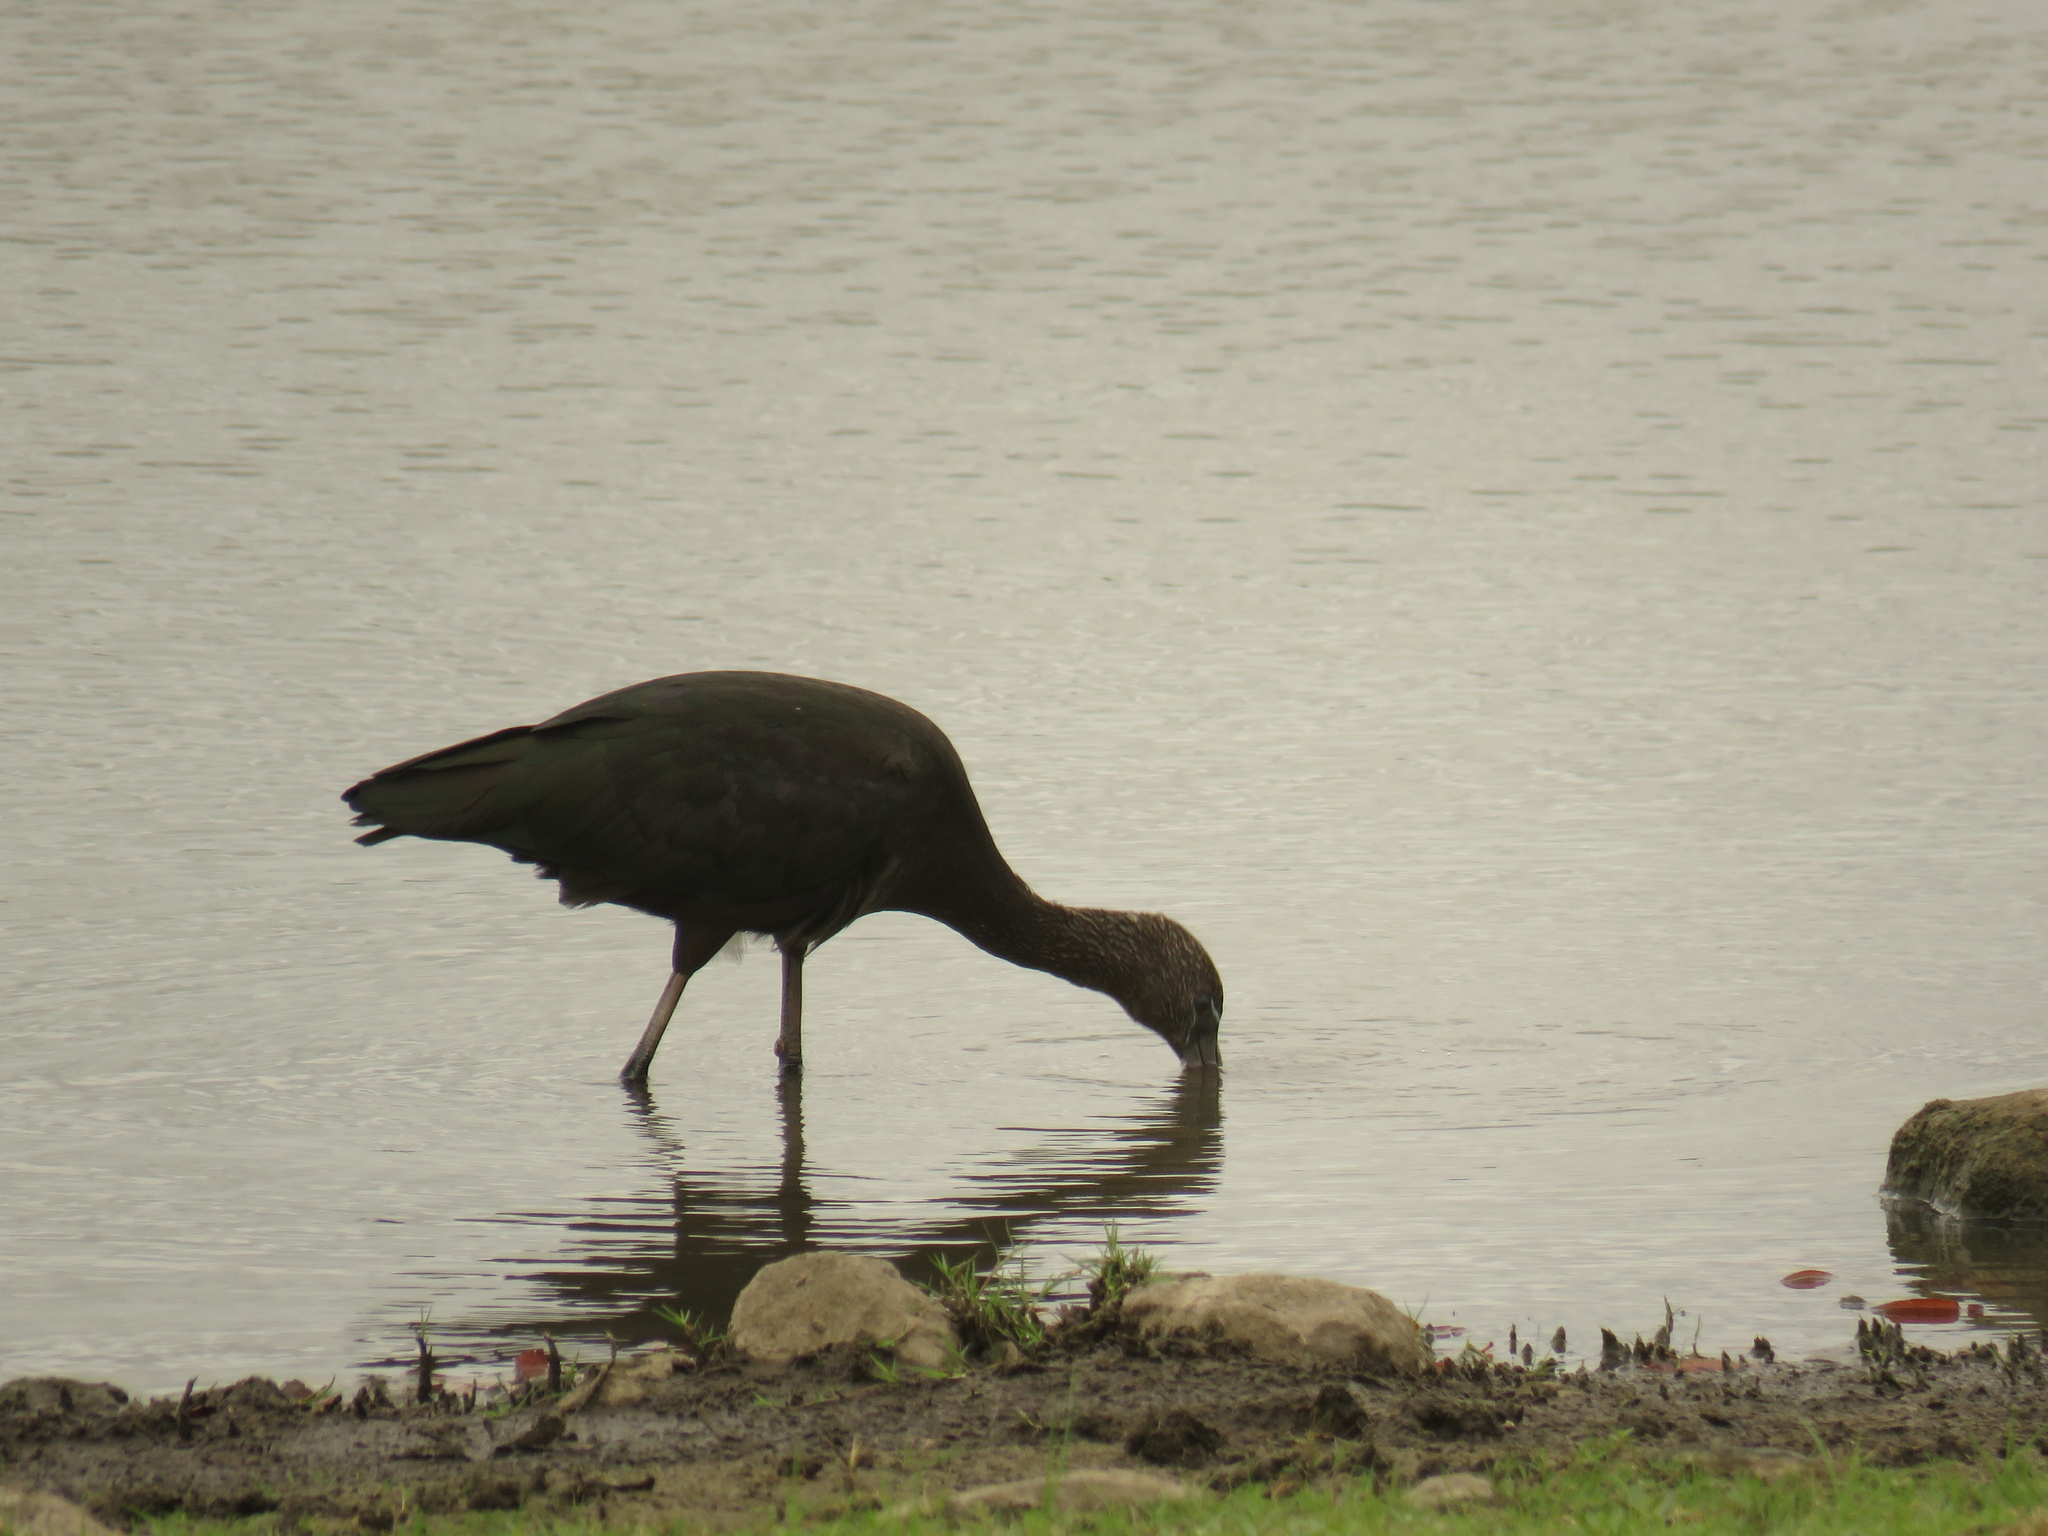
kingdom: Animalia
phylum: Chordata
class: Aves
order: Pelecaniformes
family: Threskiornithidae
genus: Plegadis
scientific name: Plegadis falcinellus
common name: Glossy ibis
